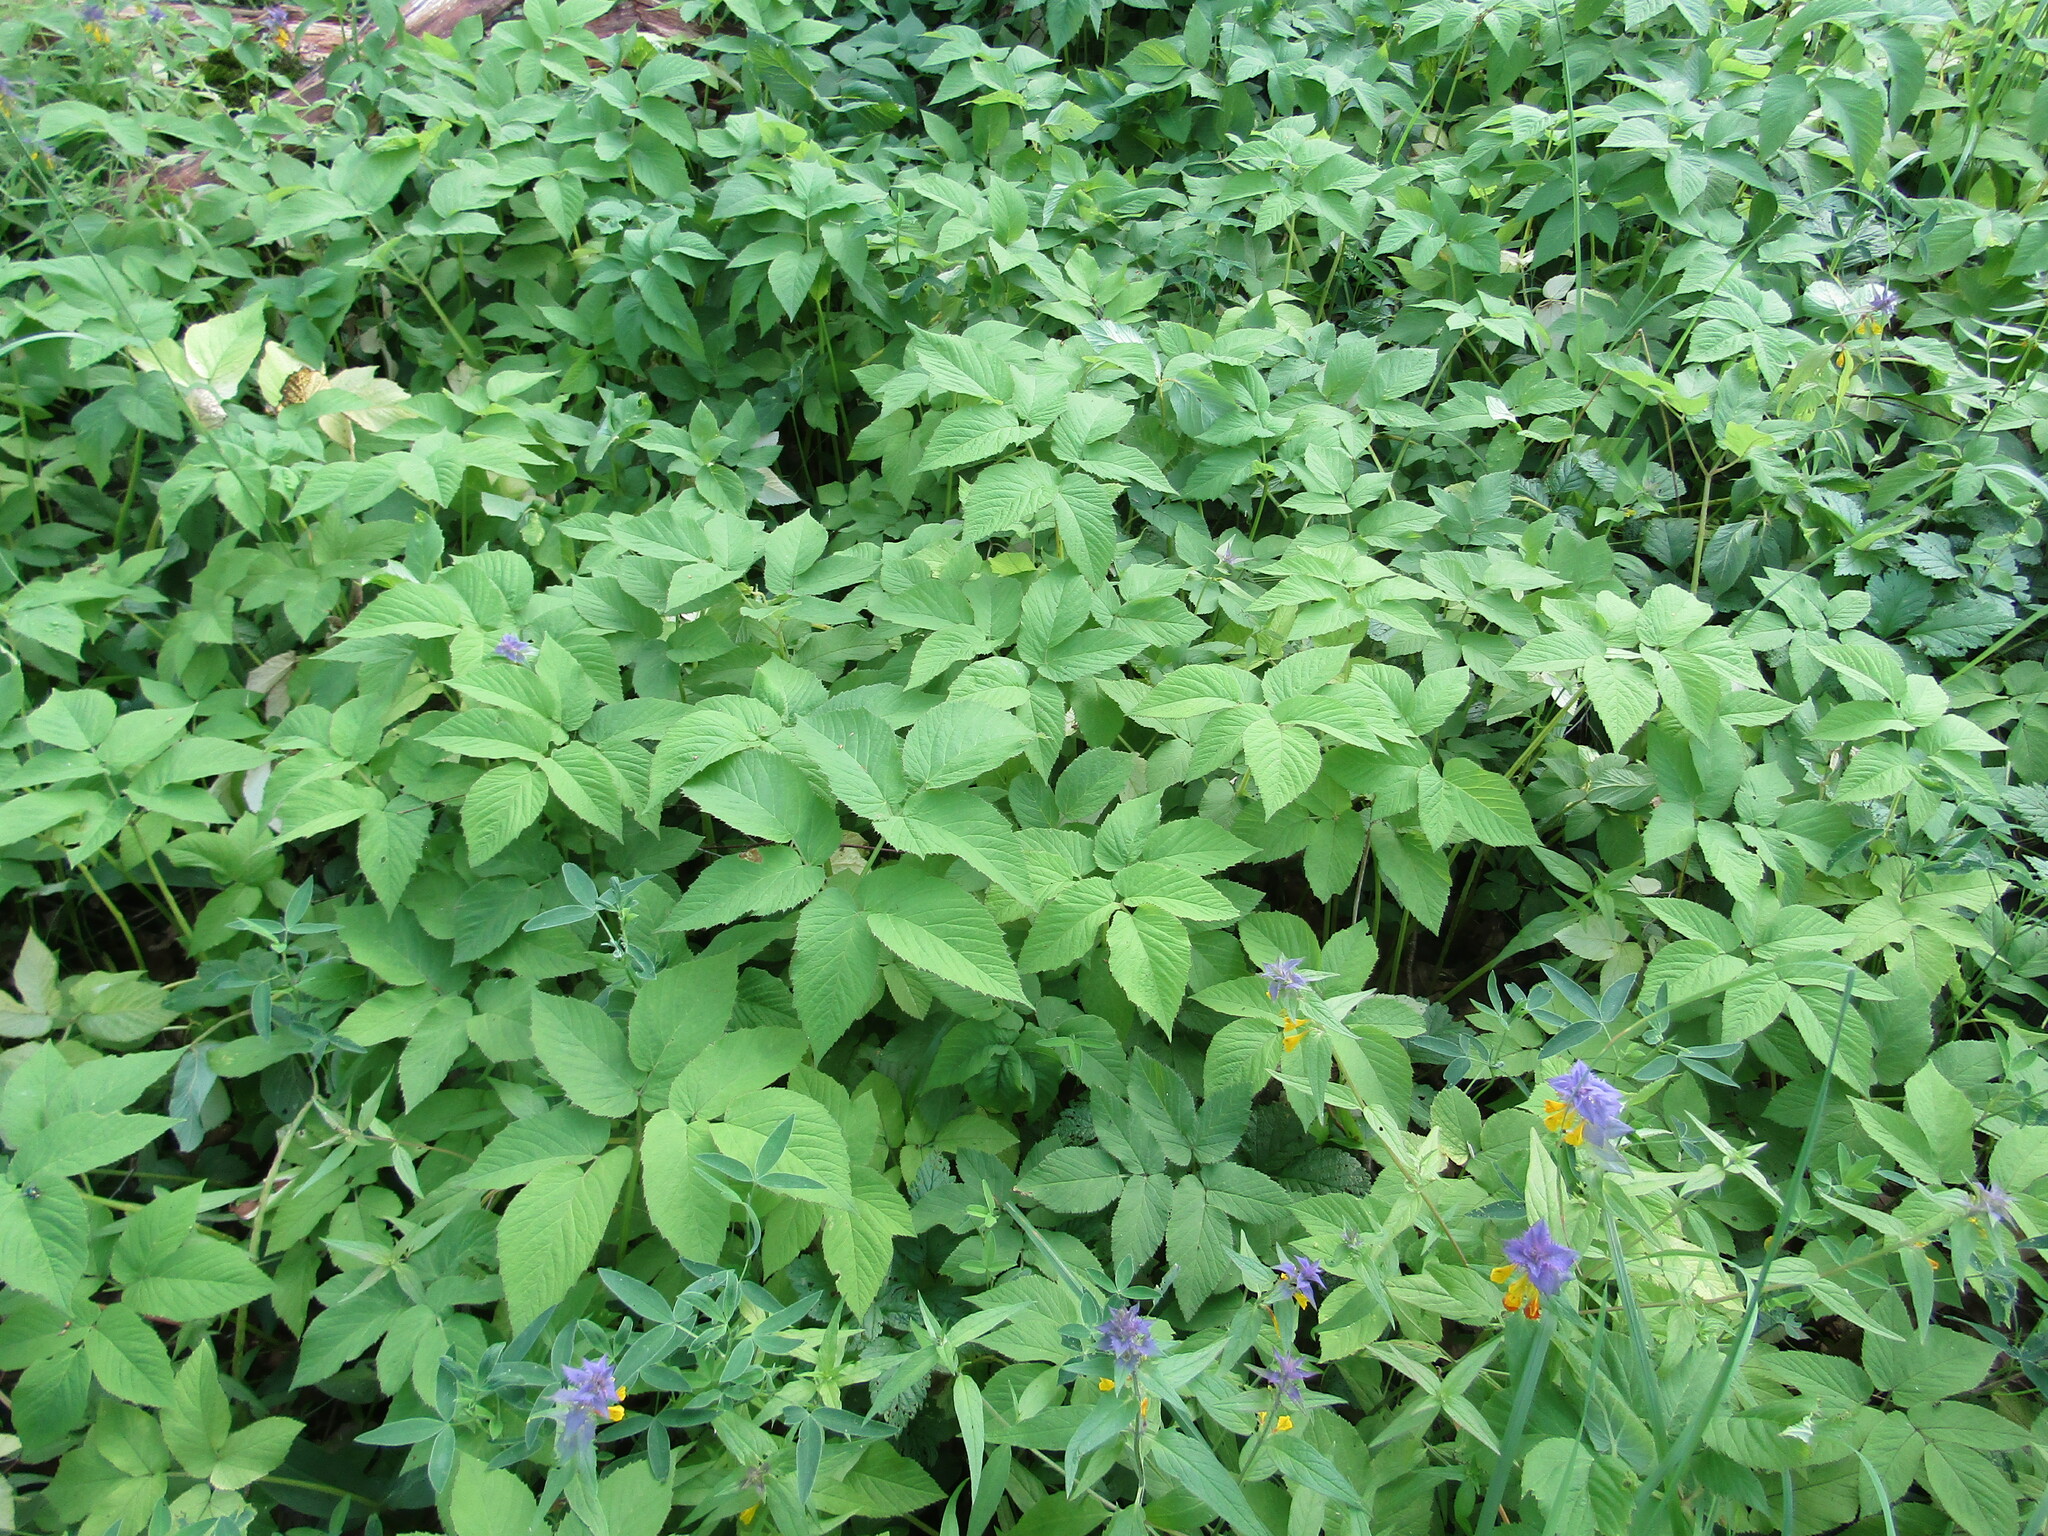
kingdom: Plantae
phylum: Tracheophyta
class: Magnoliopsida
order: Apiales
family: Apiaceae
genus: Aegopodium
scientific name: Aegopodium podagraria
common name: Ground-elder
